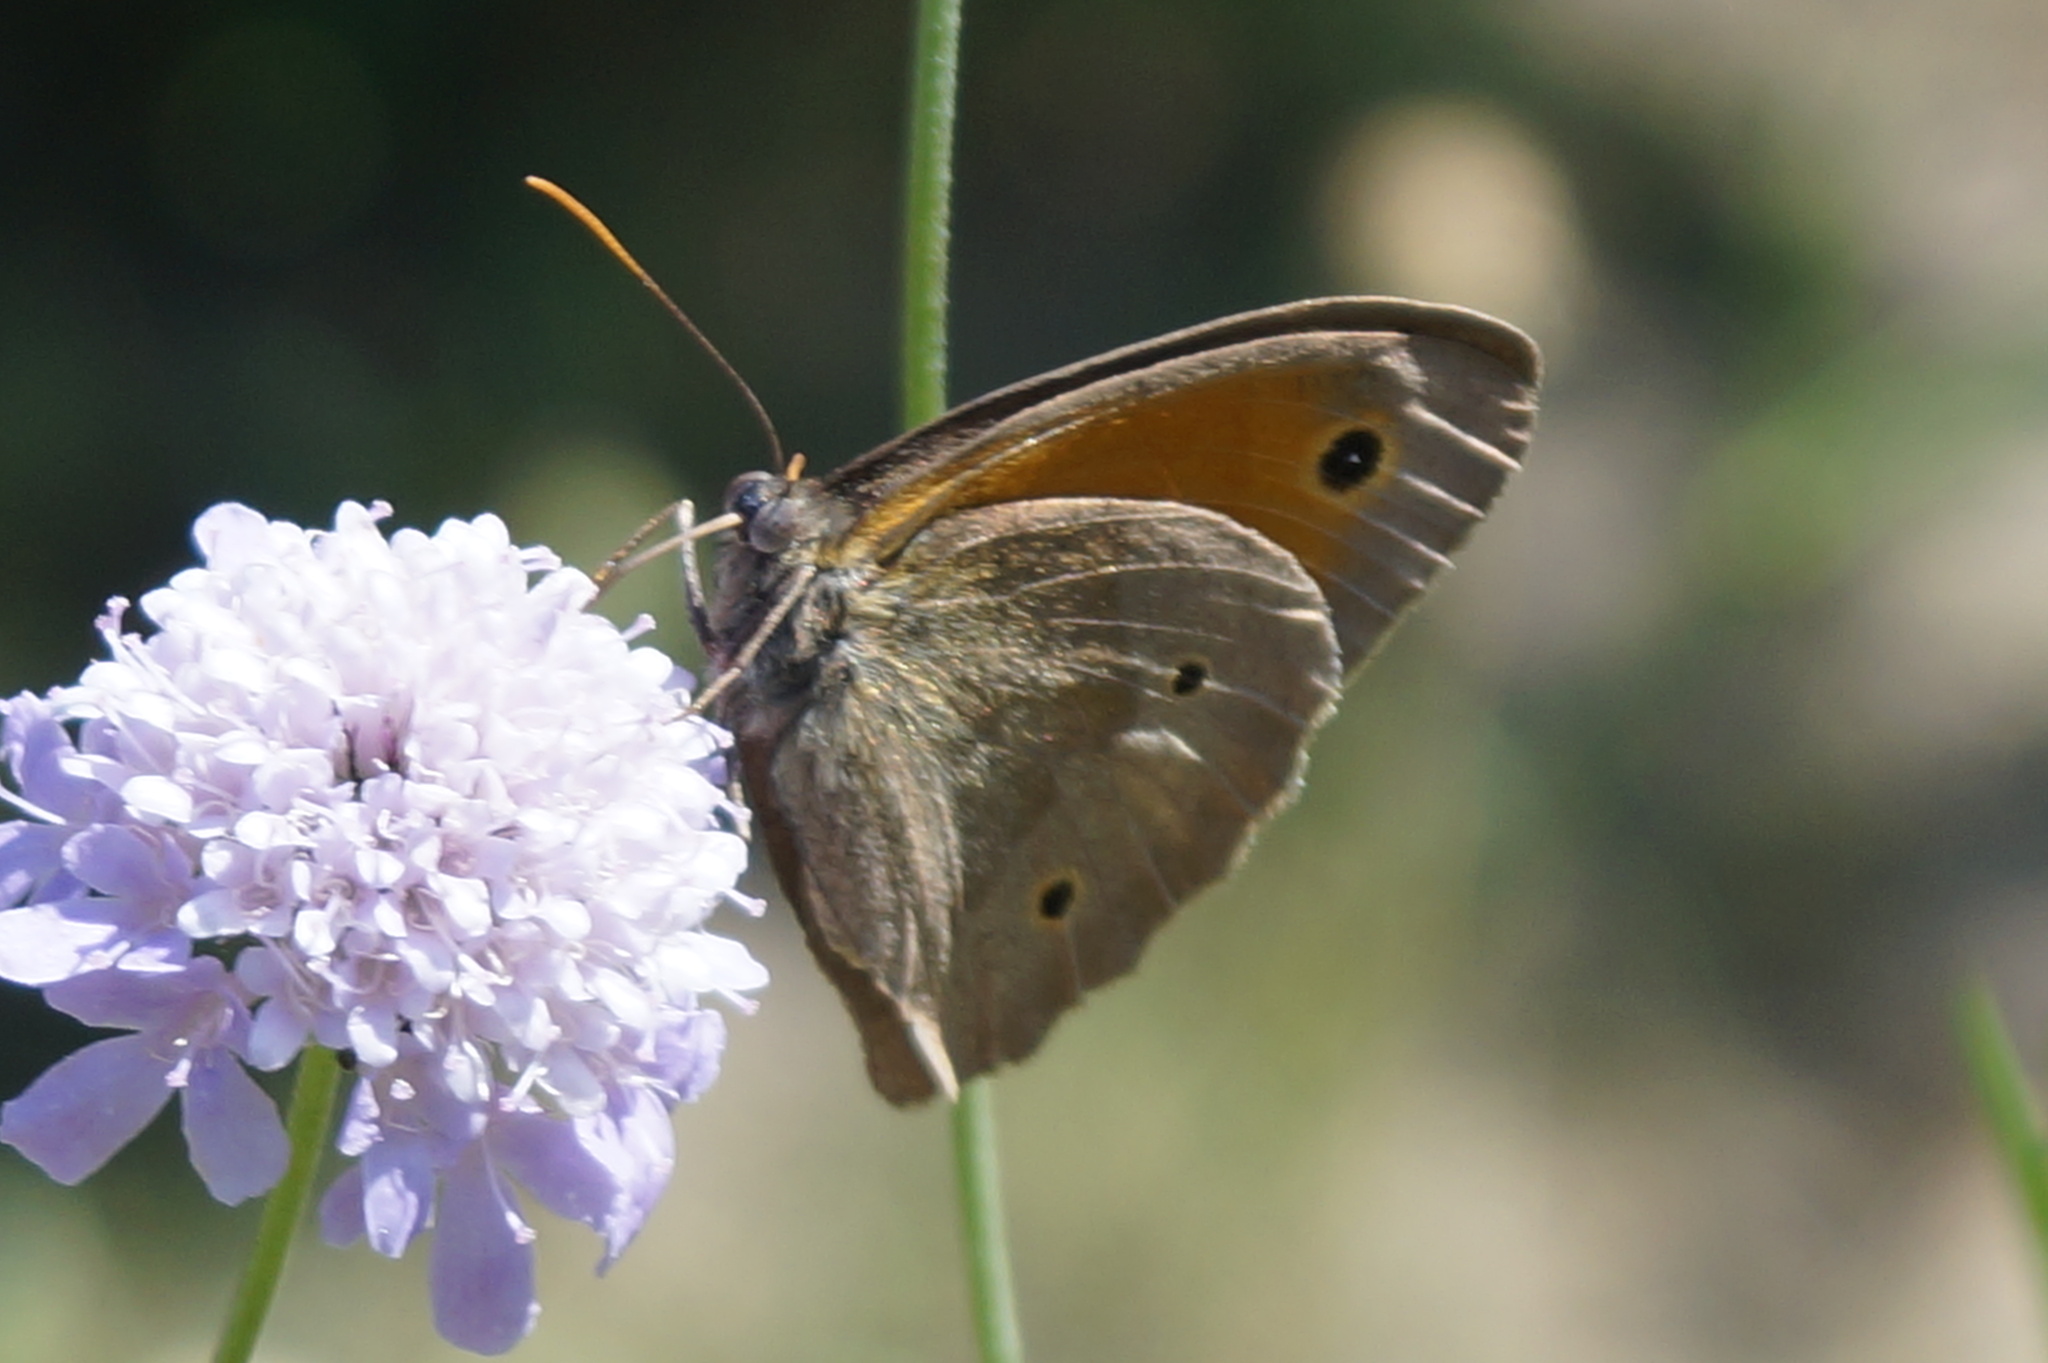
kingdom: Animalia
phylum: Arthropoda
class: Insecta
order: Lepidoptera
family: Nymphalidae
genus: Maniola
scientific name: Maniola jurtina
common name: Meadow brown
